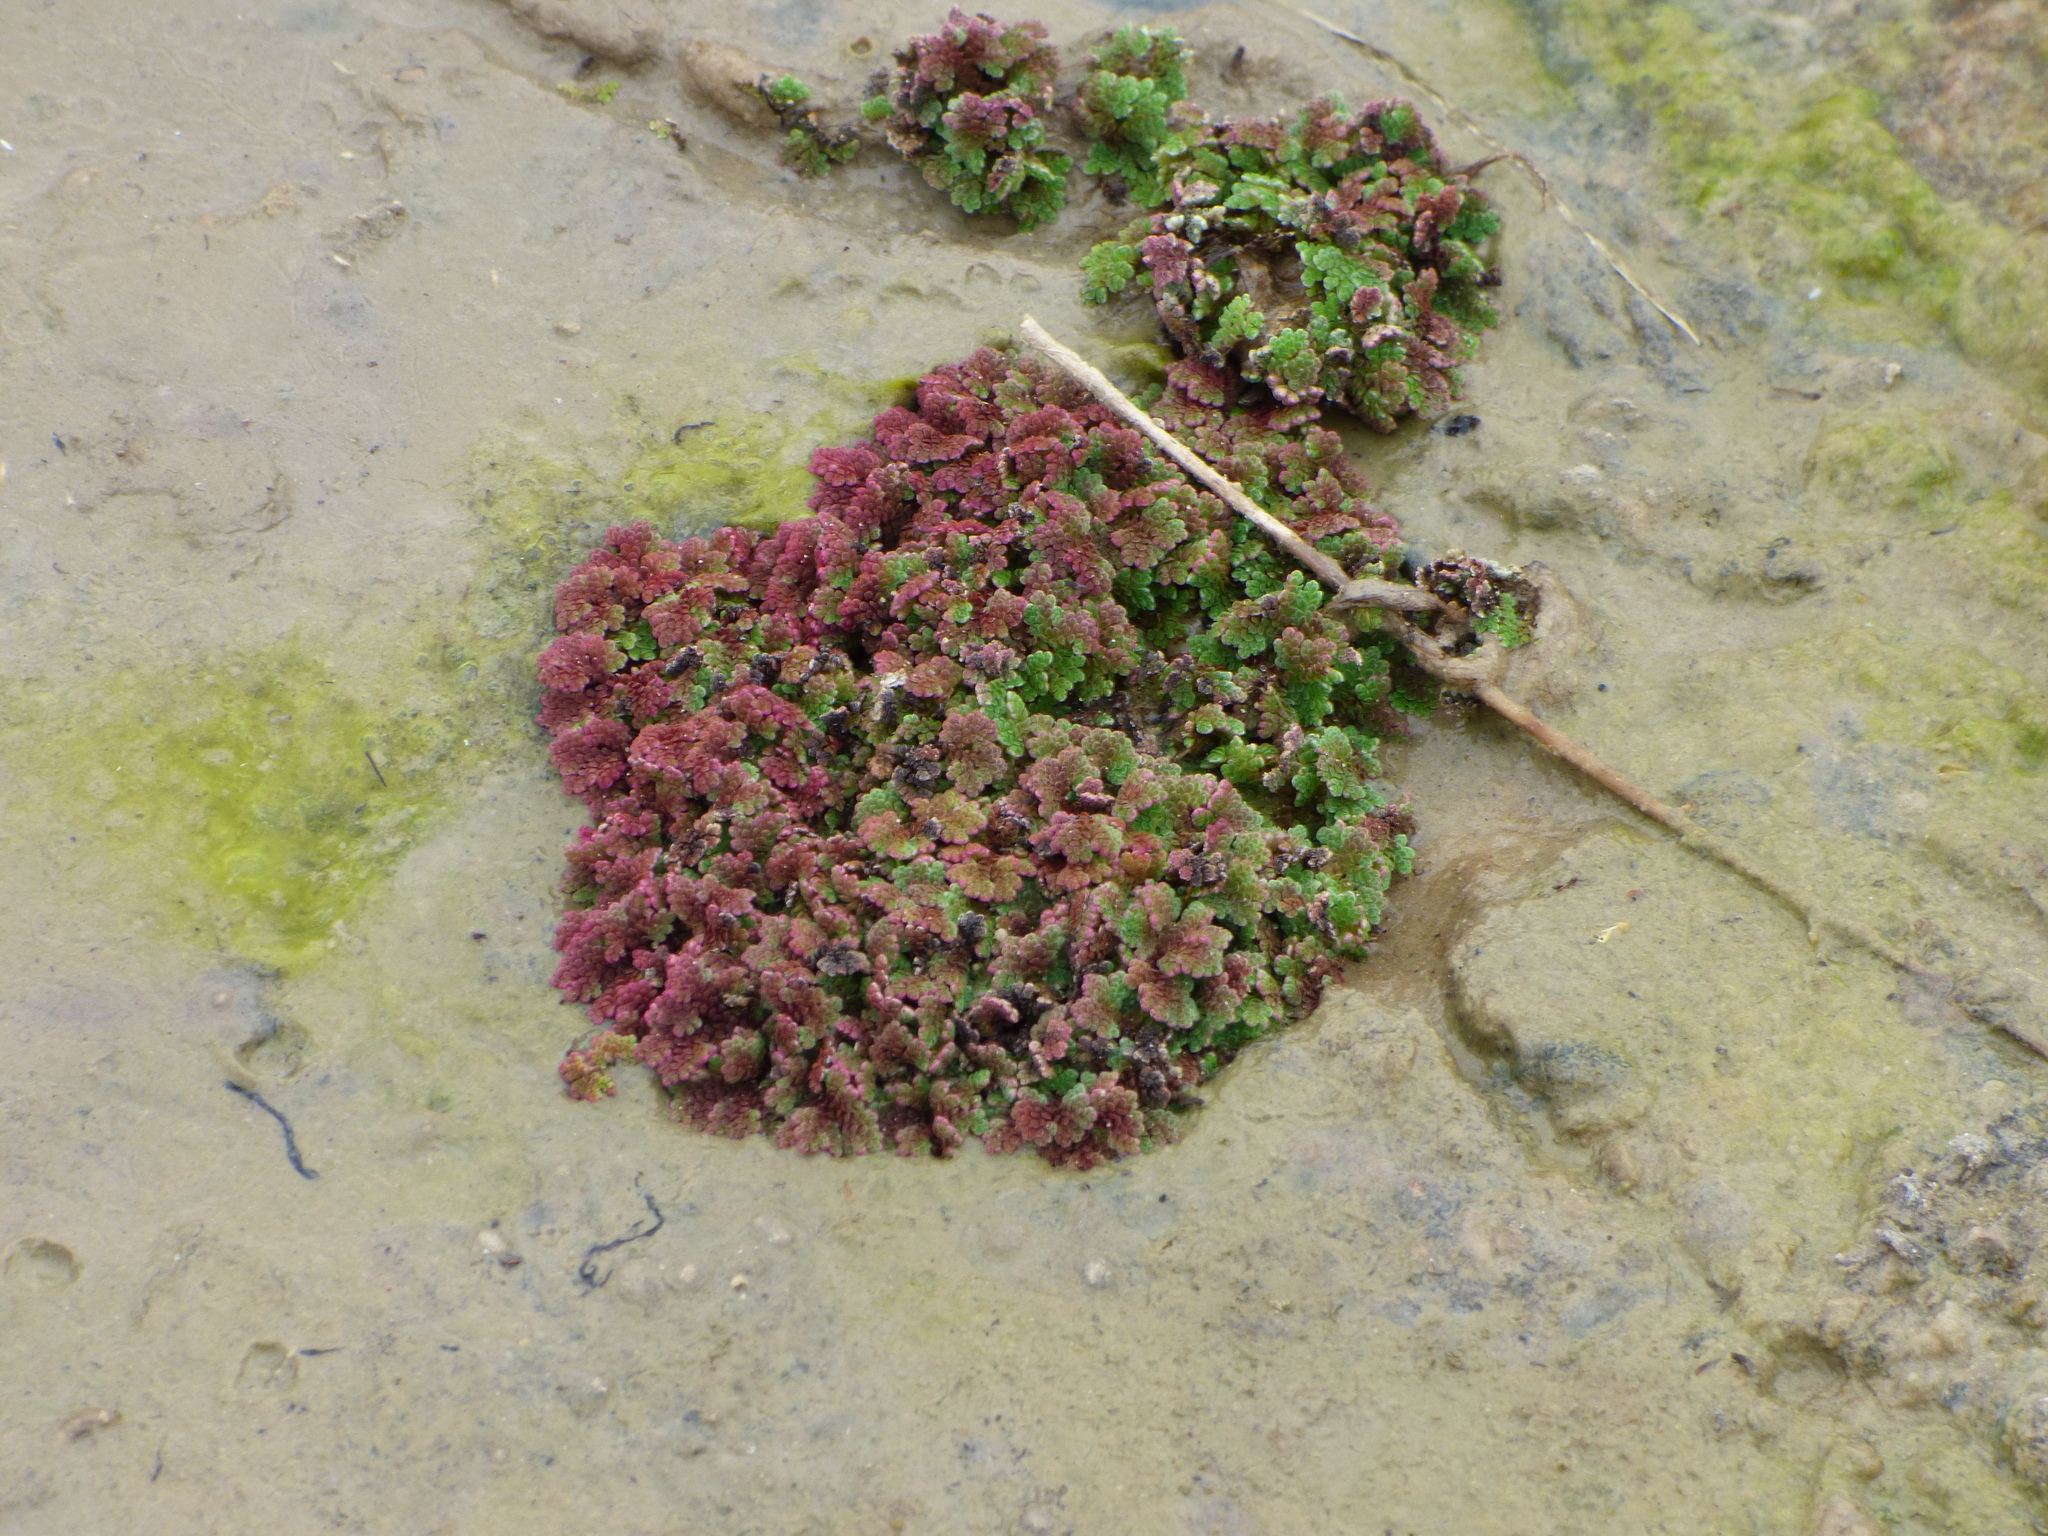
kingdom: Plantae
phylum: Tracheophyta
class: Polypodiopsida
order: Salviniales
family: Salviniaceae
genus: Azolla
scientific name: Azolla filiculoides
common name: Water fern
